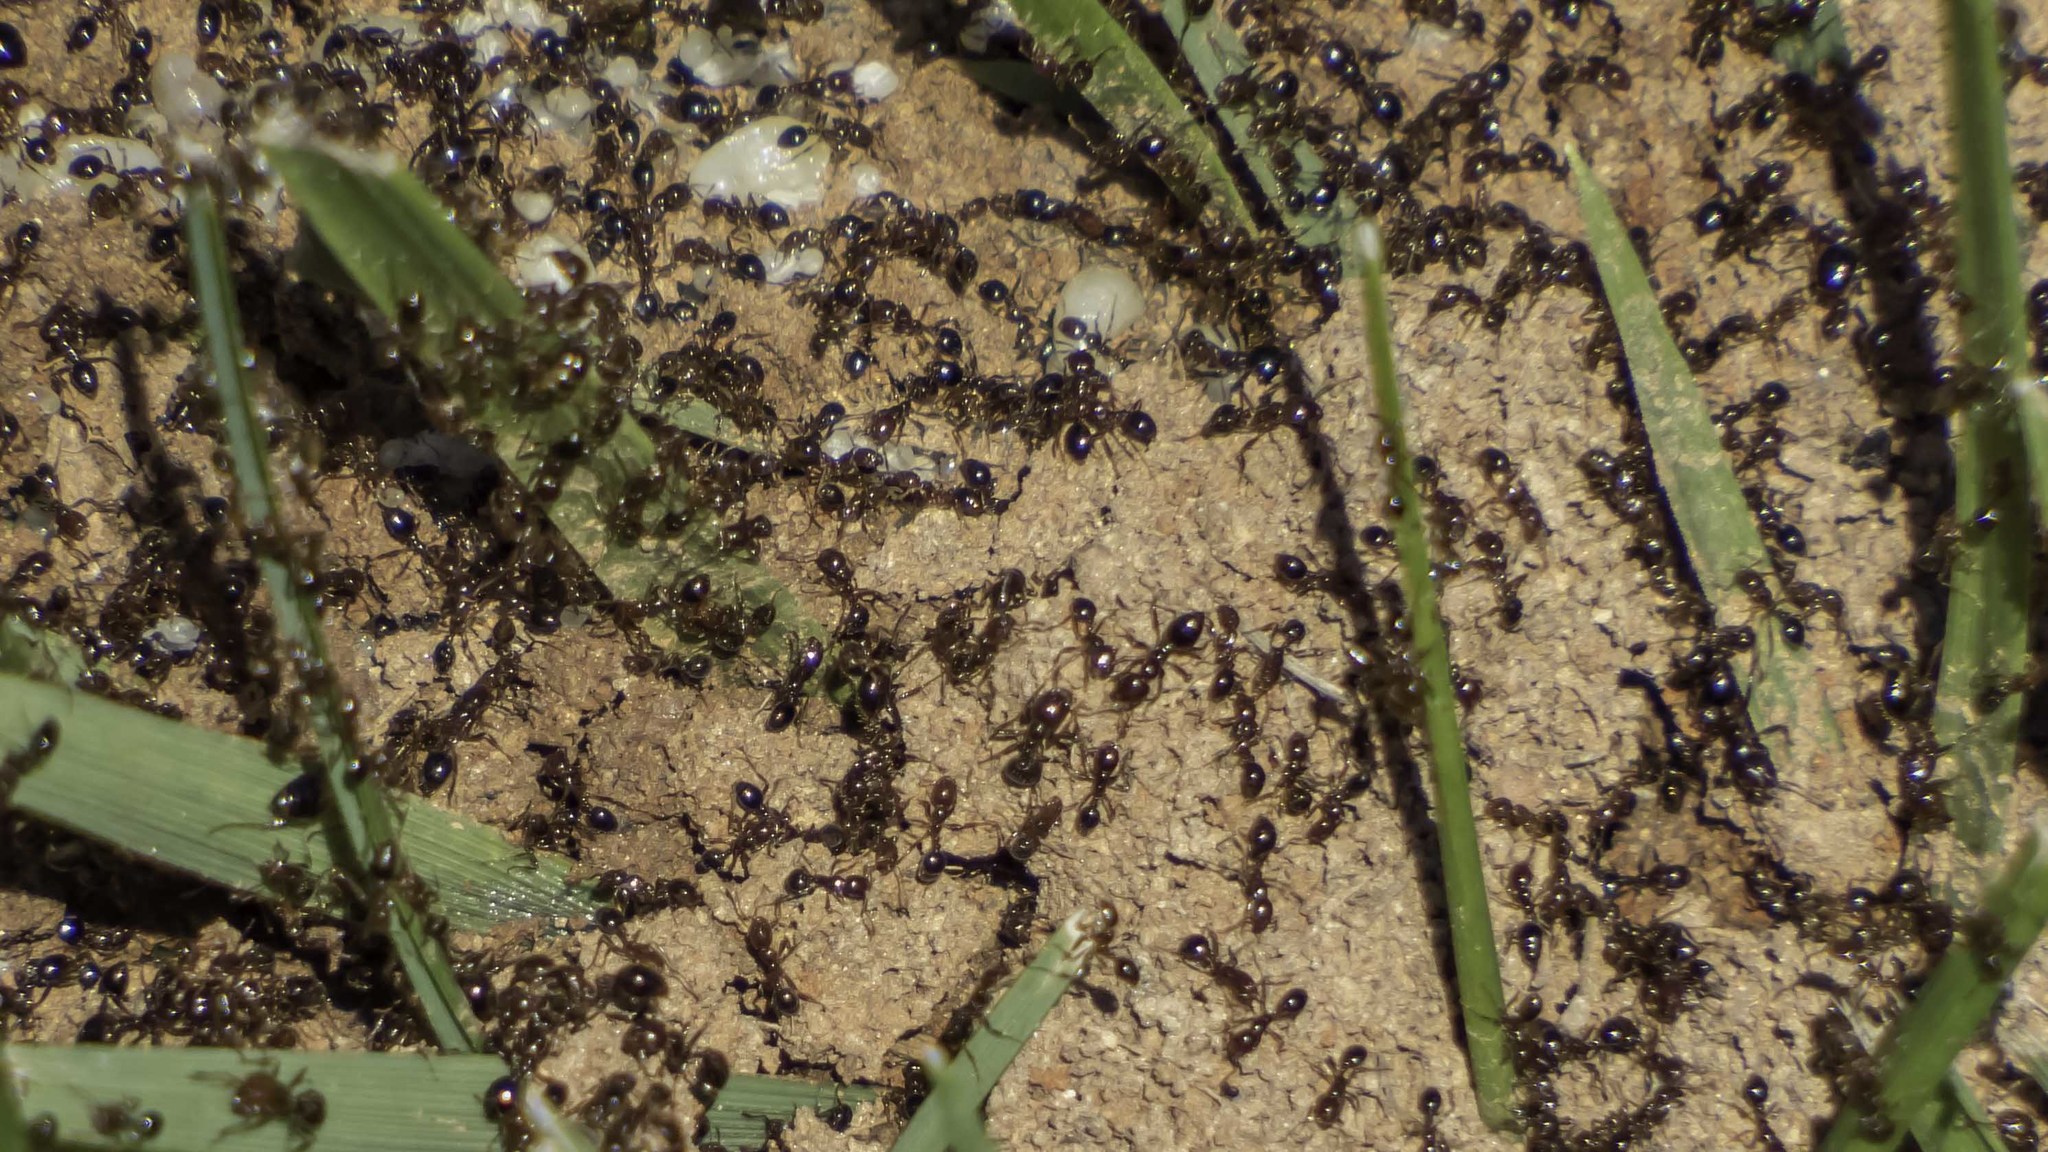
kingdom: Animalia
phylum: Arthropoda
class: Insecta
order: Hymenoptera
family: Formicidae
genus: Solenopsis
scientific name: Solenopsis invicta
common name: Red imported fire ant
